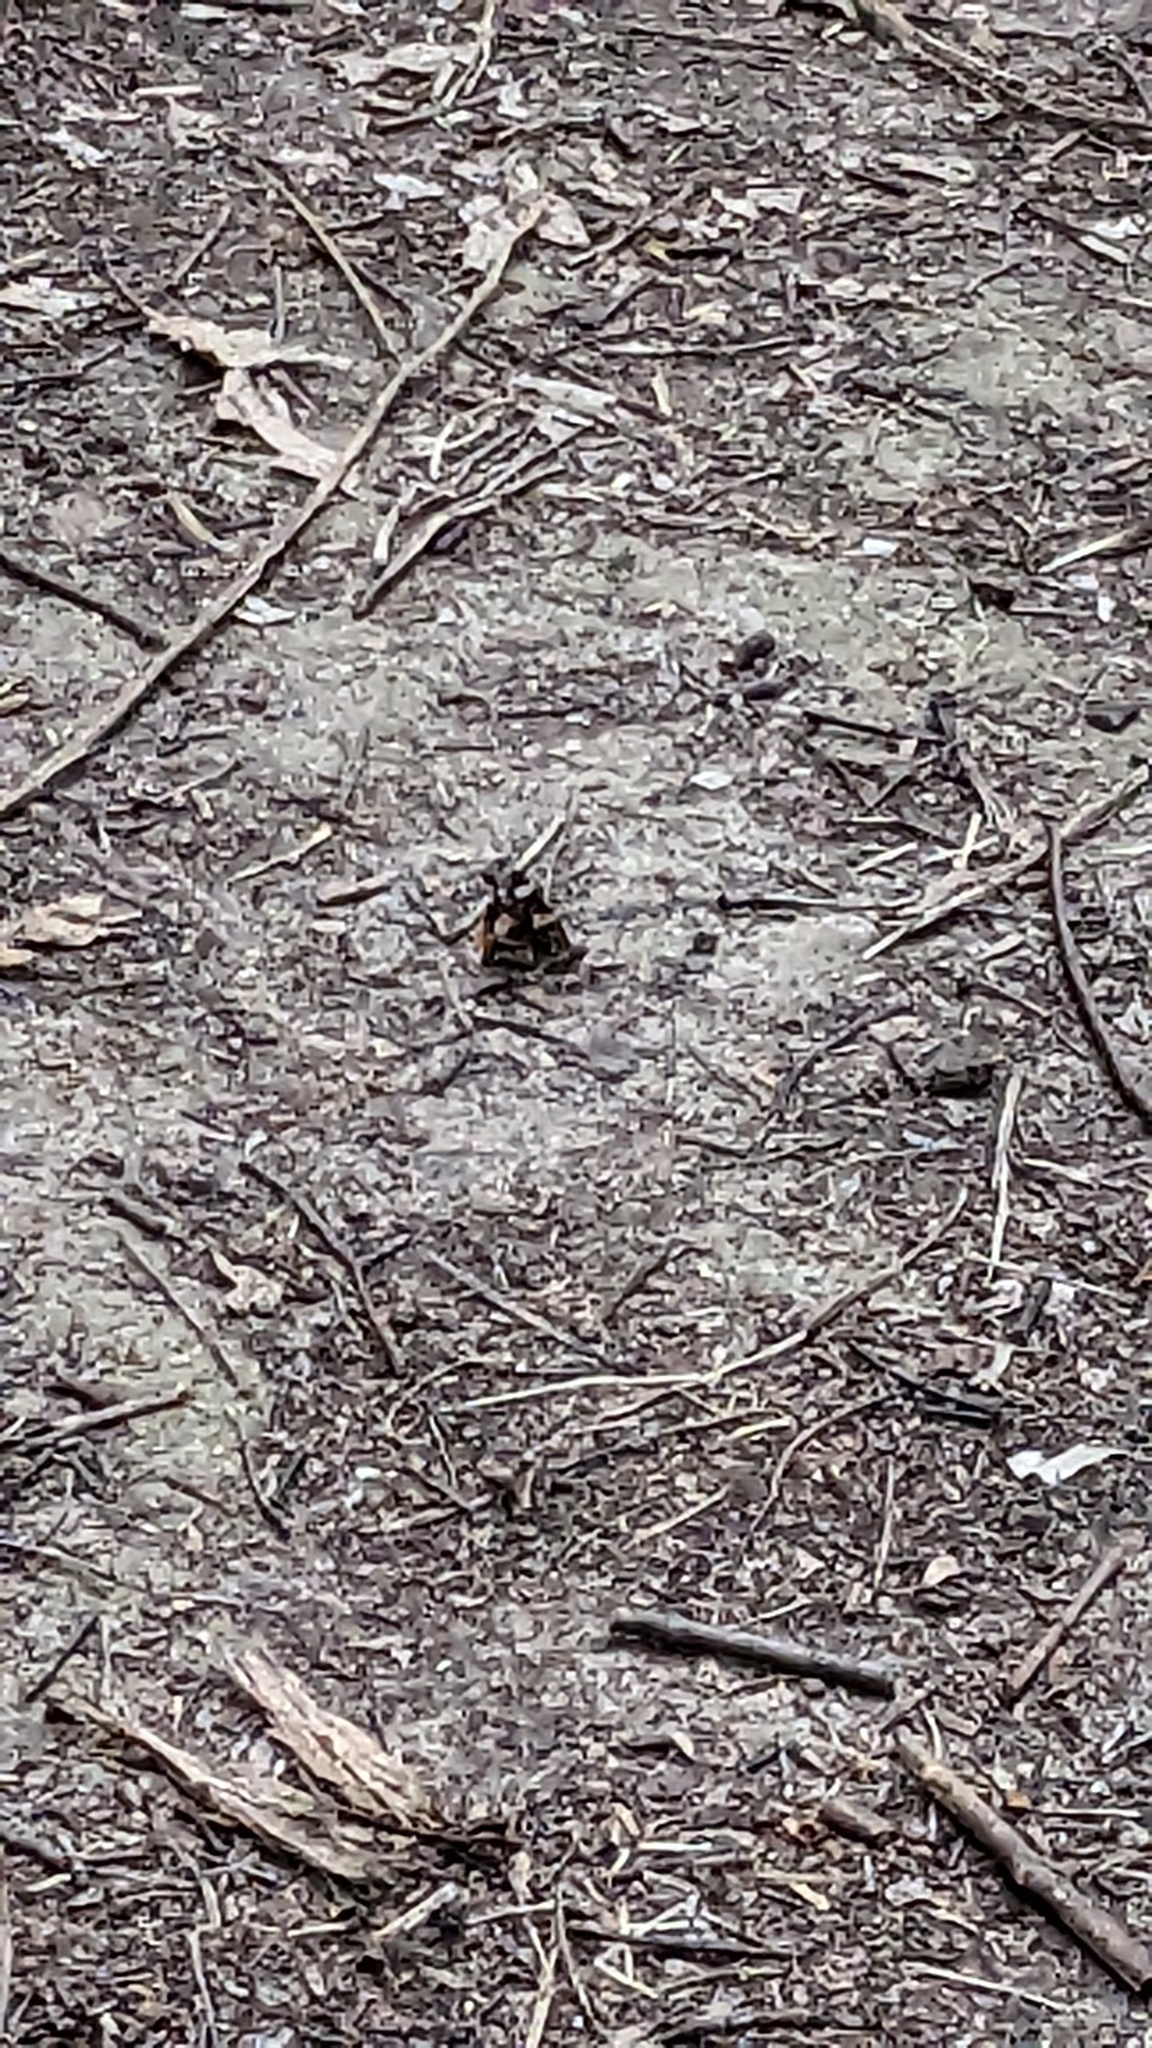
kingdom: Animalia
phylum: Arthropoda
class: Insecta
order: Lepidoptera
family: Nymphalidae
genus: Vanessa
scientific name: Vanessa atalanta
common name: Red admiral
